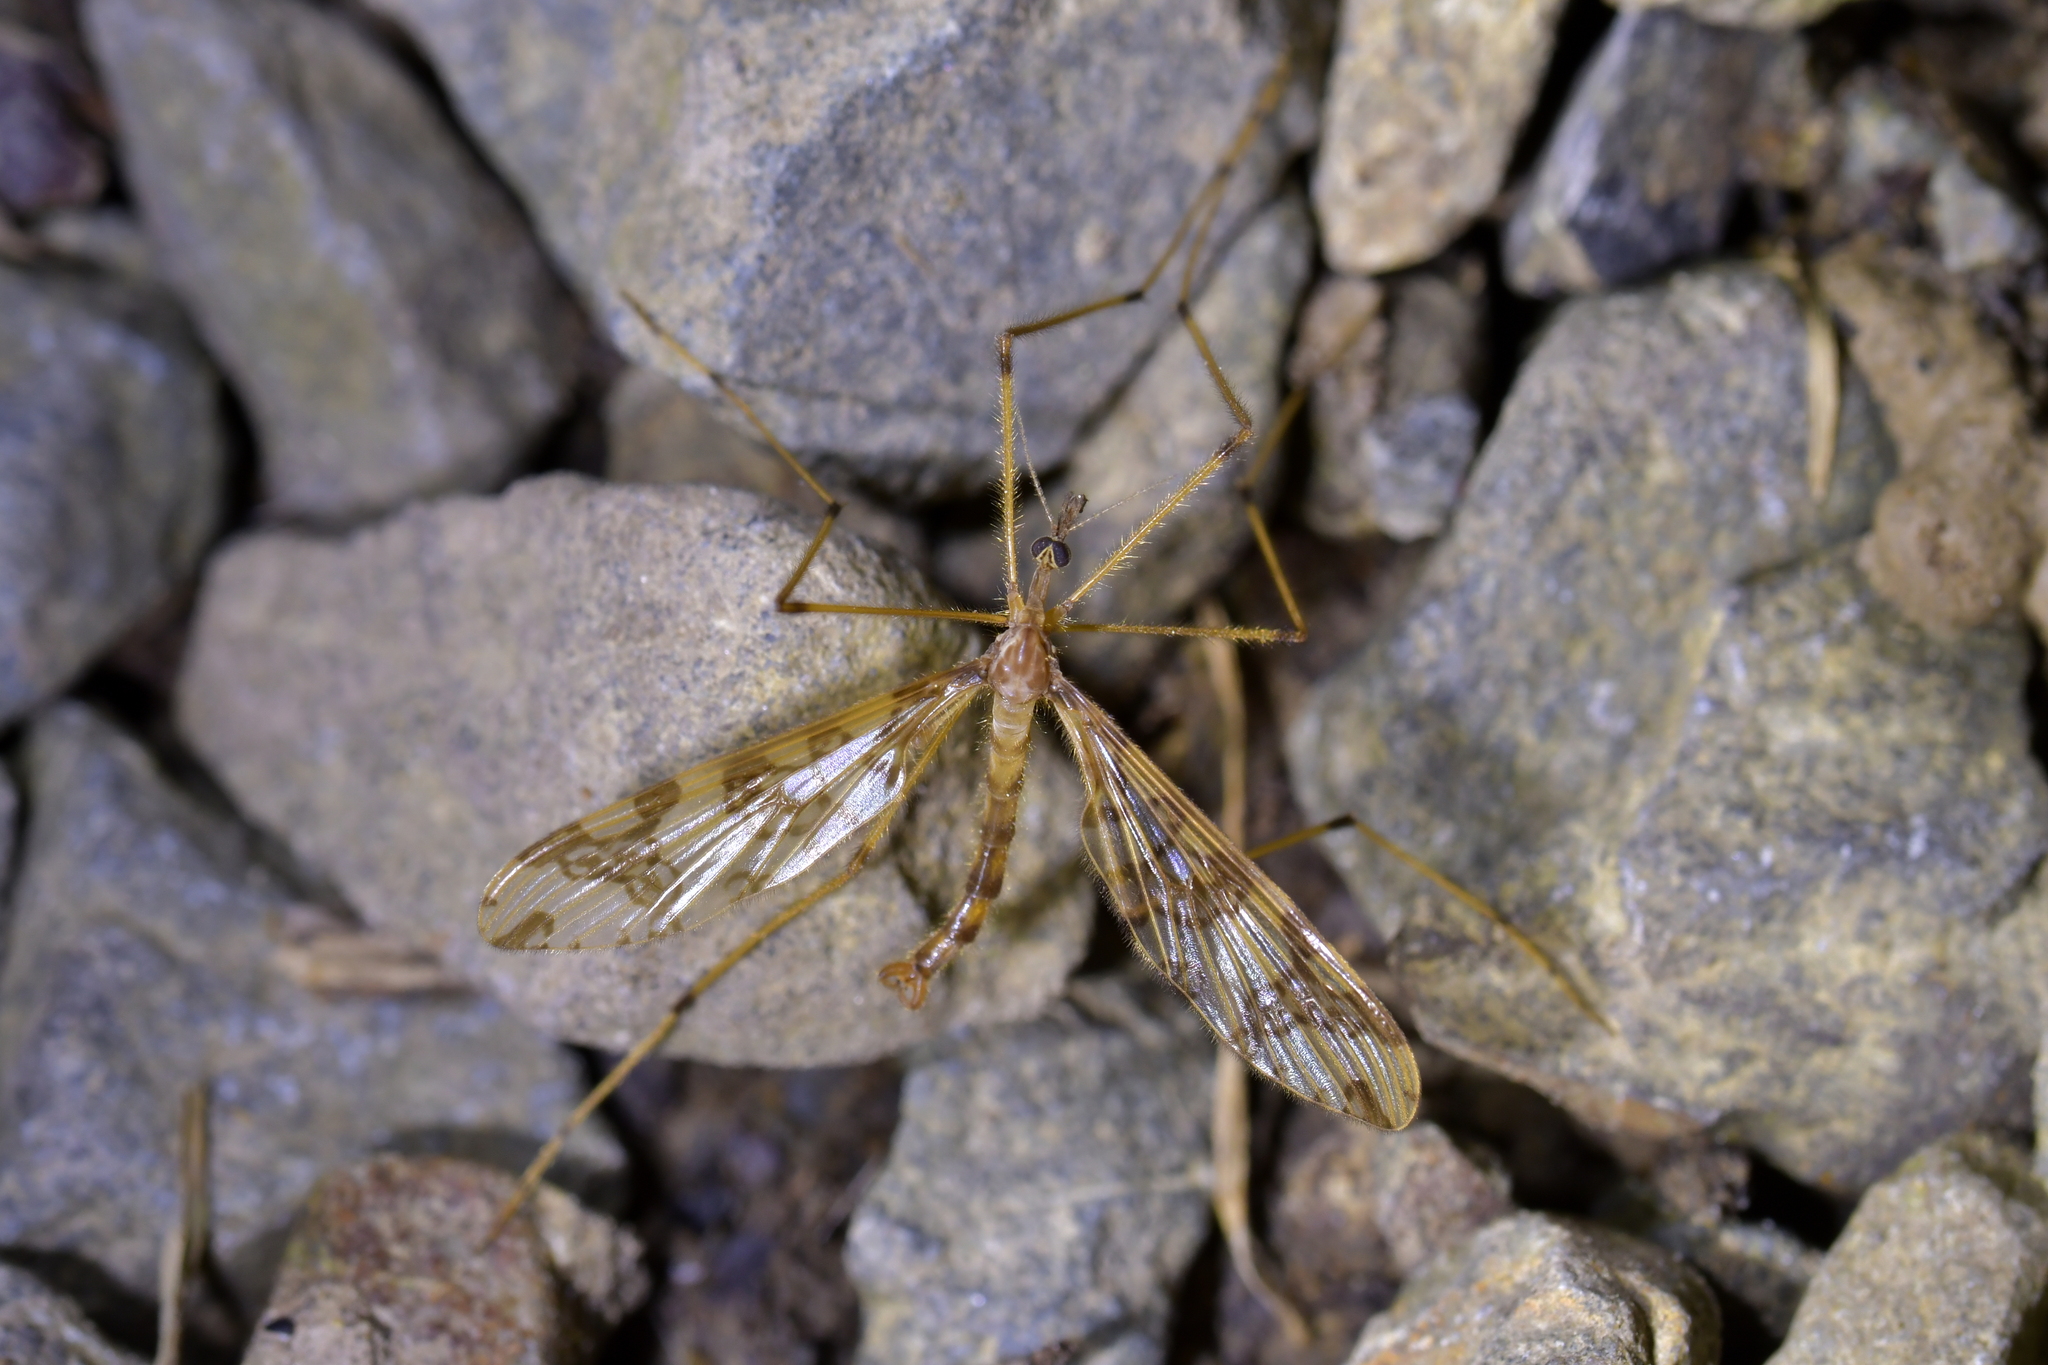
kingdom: Animalia
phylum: Arthropoda
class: Insecta
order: Diptera
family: Tanyderidae
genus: Tanyderus
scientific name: Tanyderus annuliferus
